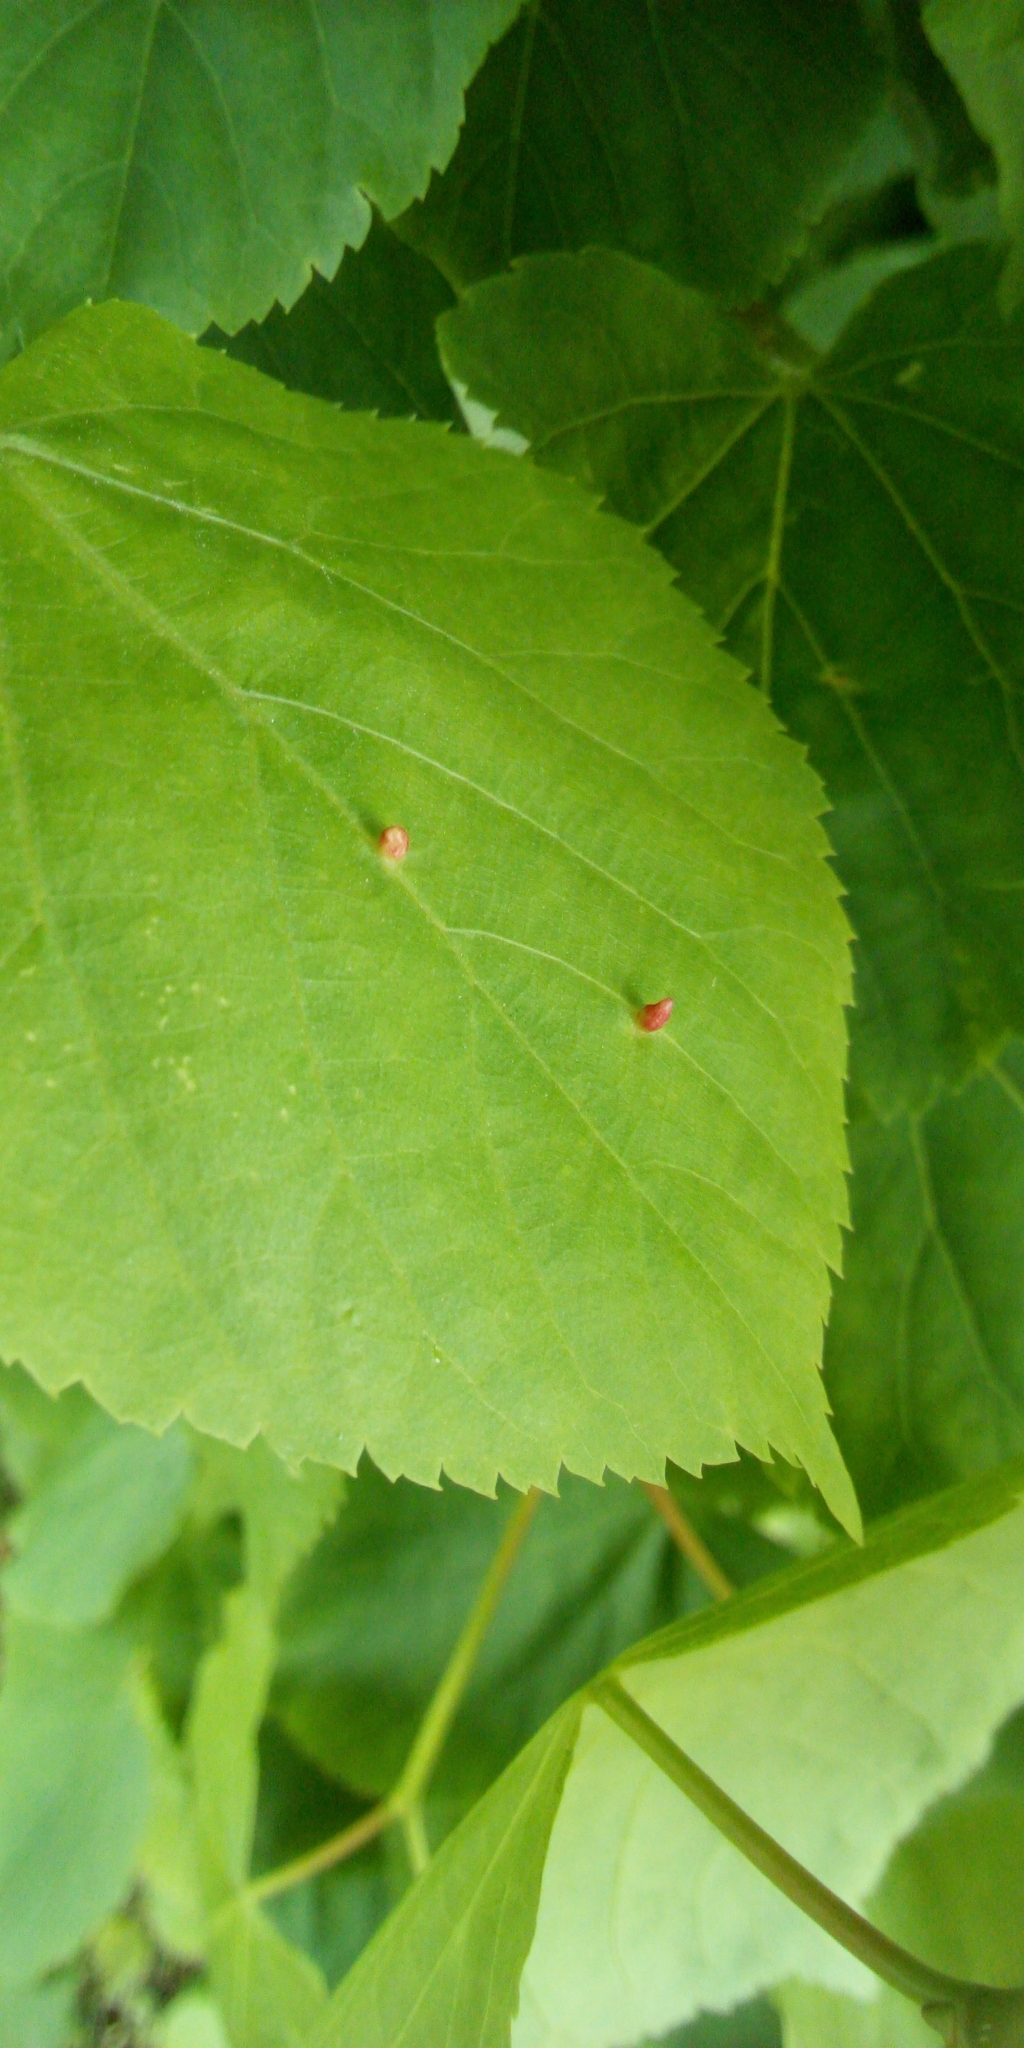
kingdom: Animalia
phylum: Arthropoda
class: Arachnida
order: Trombidiformes
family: Eriophyidae
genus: Eriophyes
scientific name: Eriophyes tiliae
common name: Red nail gall mite
